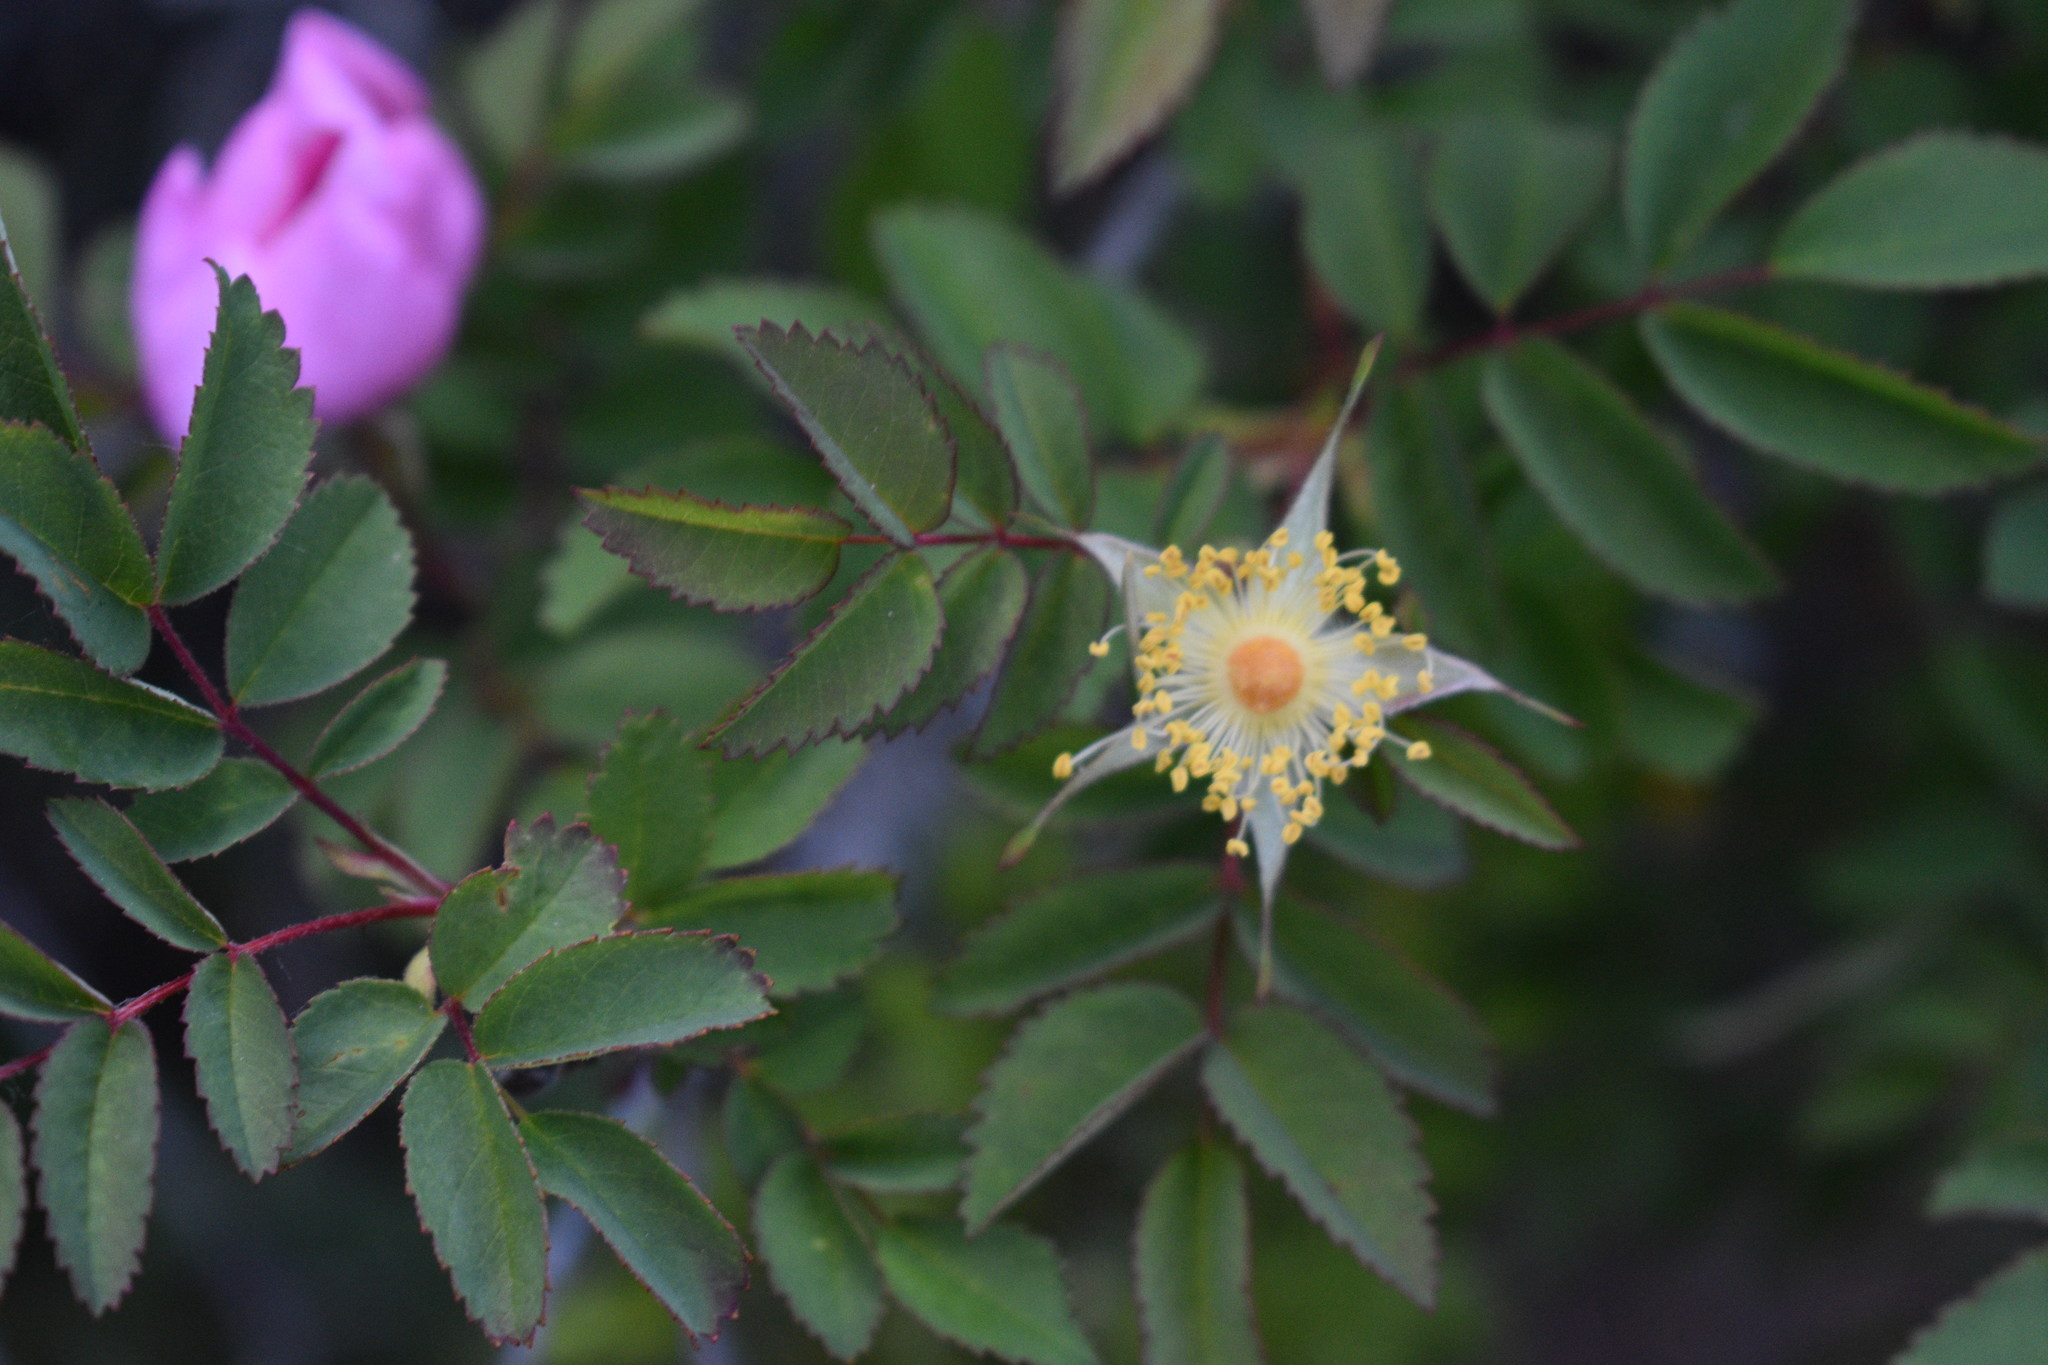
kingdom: Plantae
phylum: Tracheophyta
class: Magnoliopsida
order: Rosales
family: Rosaceae
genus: Rosa
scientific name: Rosa woodsii
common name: Woods's rose
